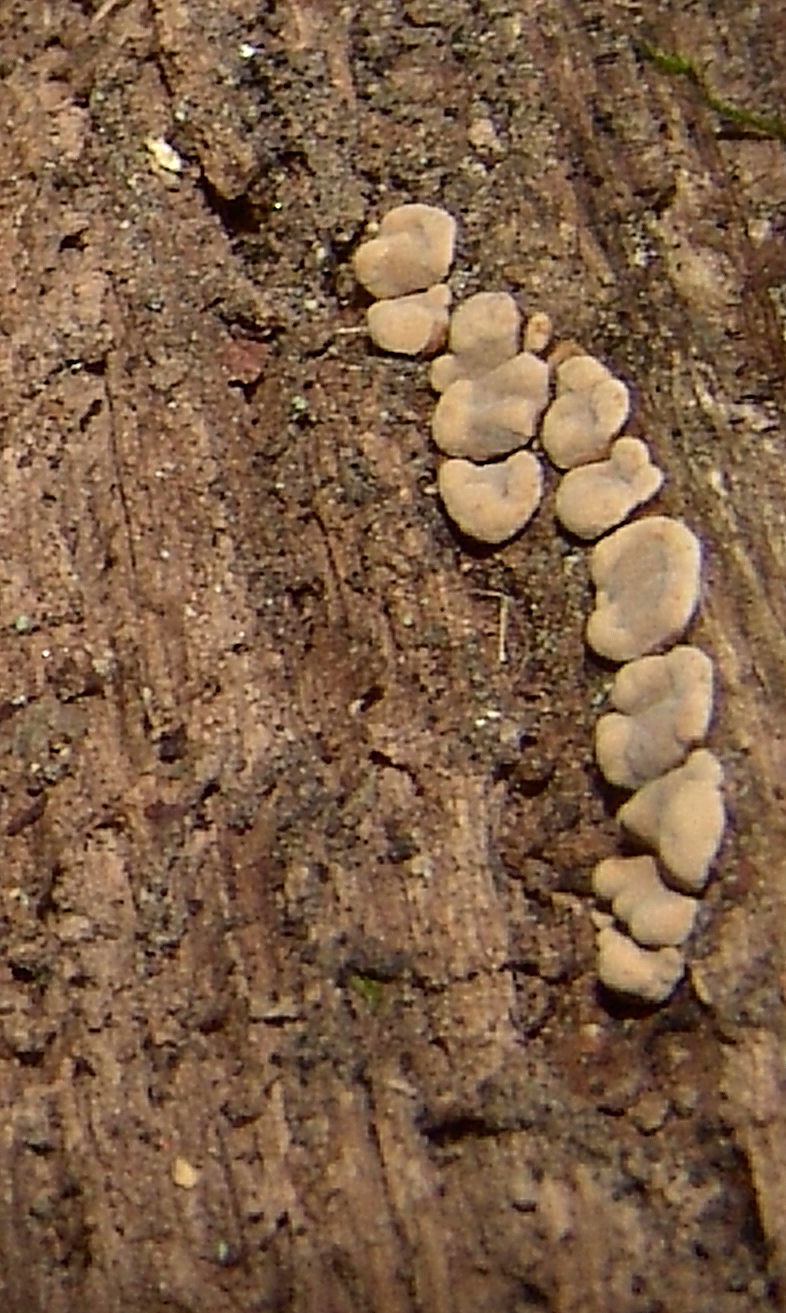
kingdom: Fungi
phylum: Basidiomycota
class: Agaricomycetes
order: Russulales
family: Stereaceae
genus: Xylobolus
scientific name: Xylobolus frustulatus
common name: Ceramic parchment
